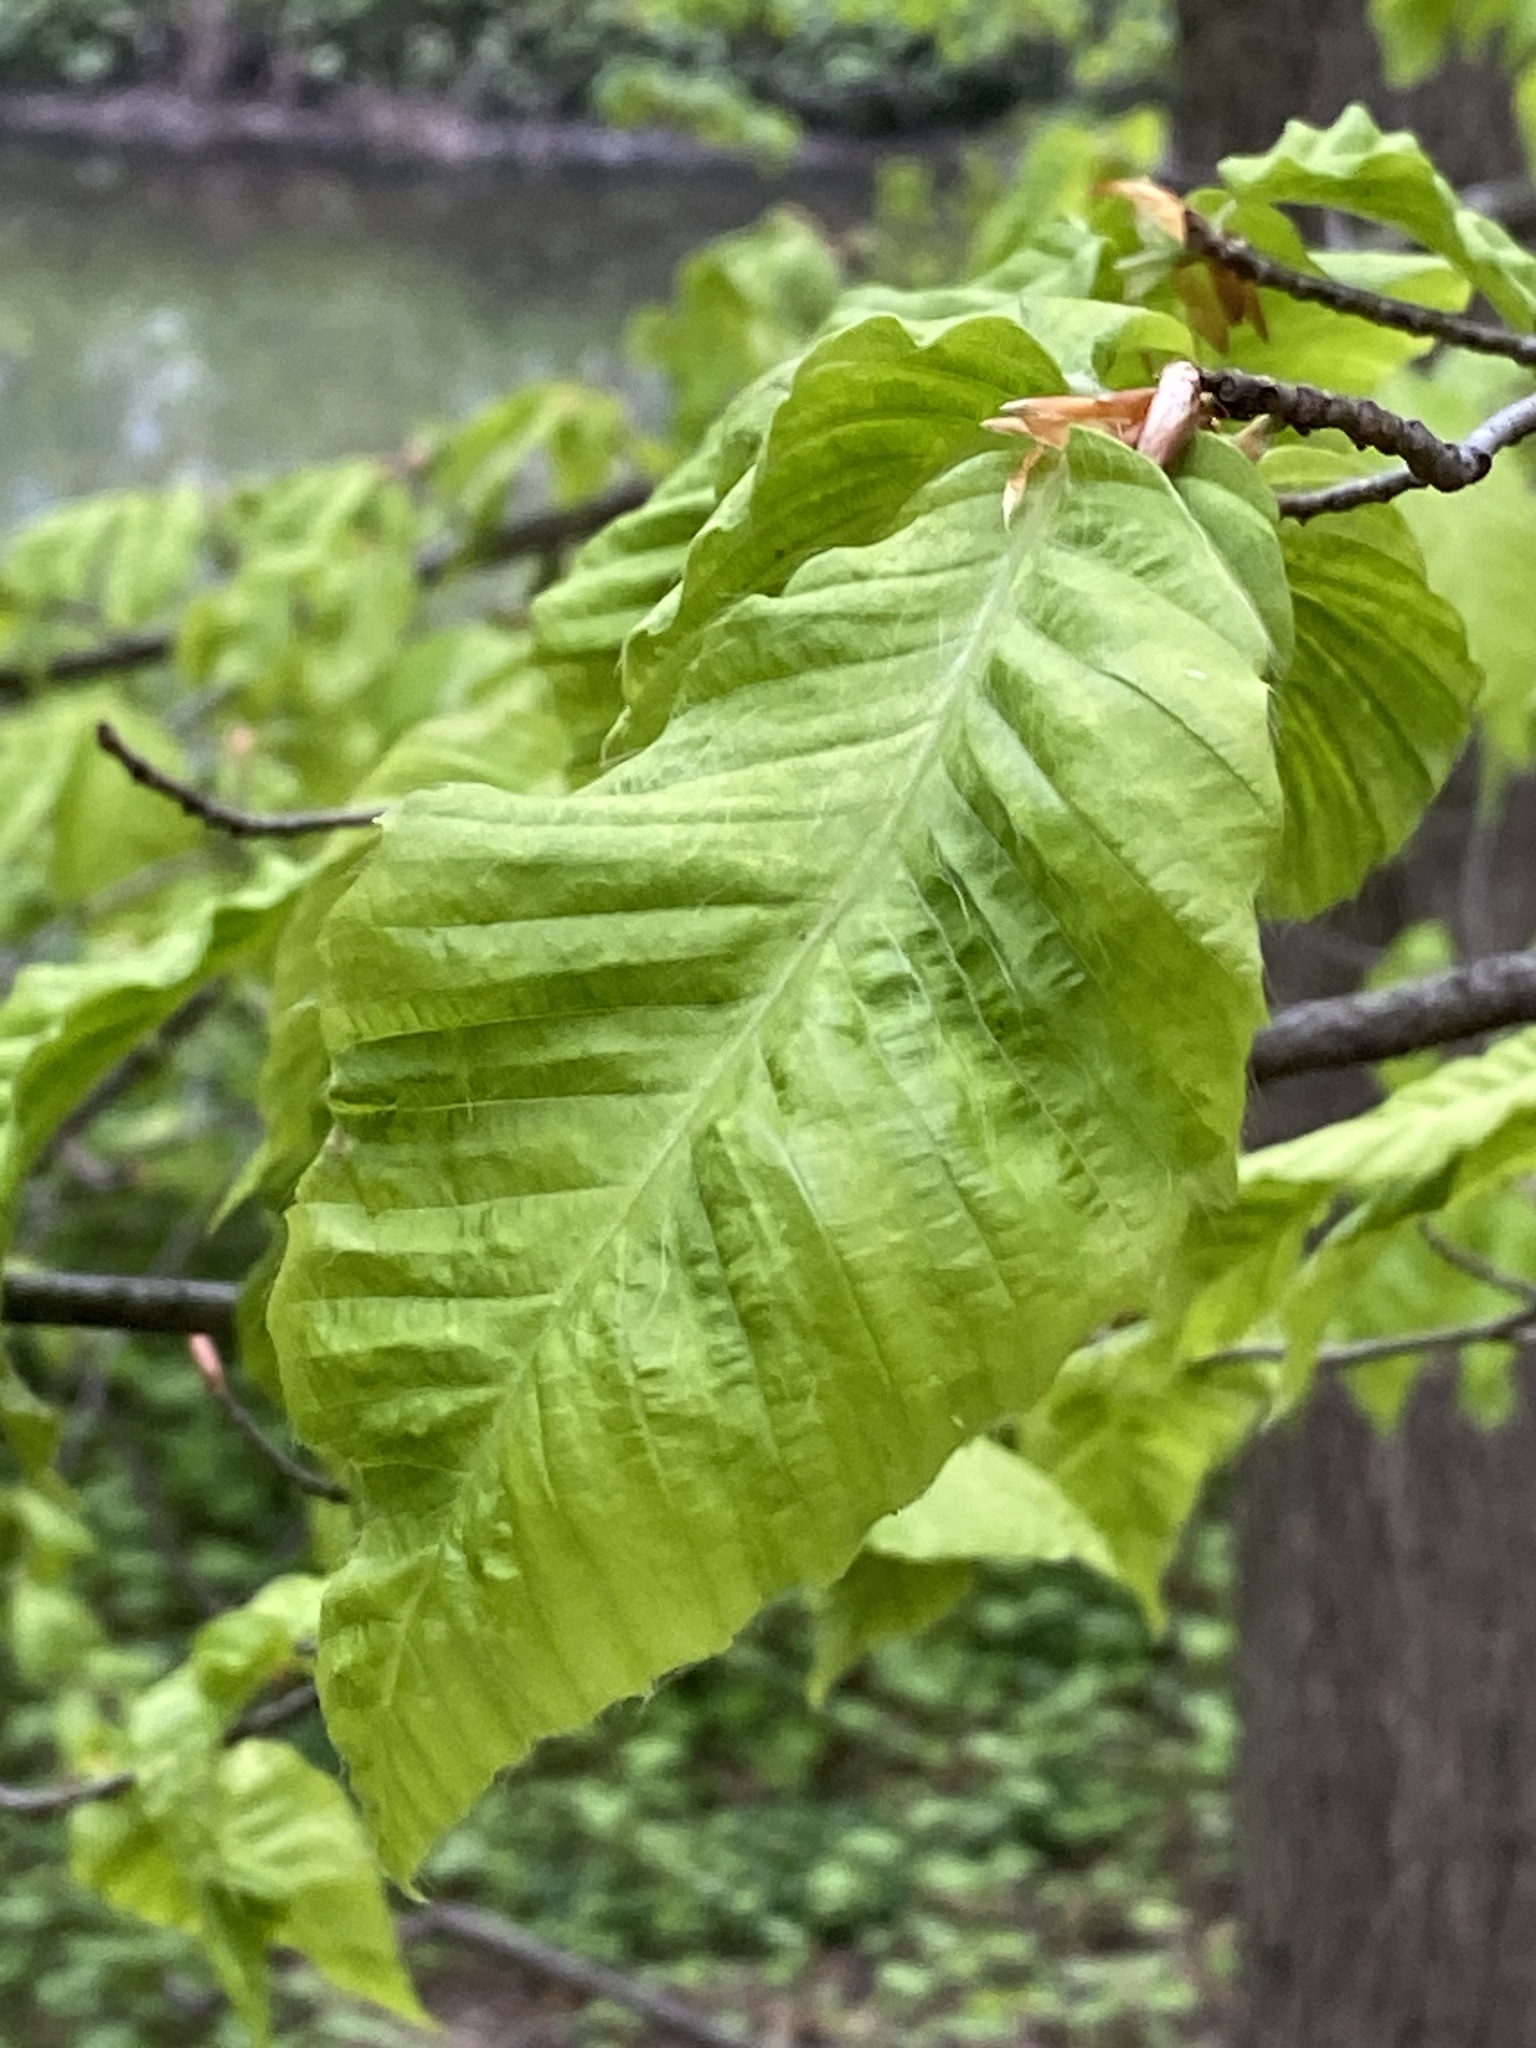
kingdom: Animalia
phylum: Nematoda
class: Chromadorea
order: Rhabditida
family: Anguinidae
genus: Litylenchus
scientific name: Litylenchus crenatae
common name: Beech leaf disease
